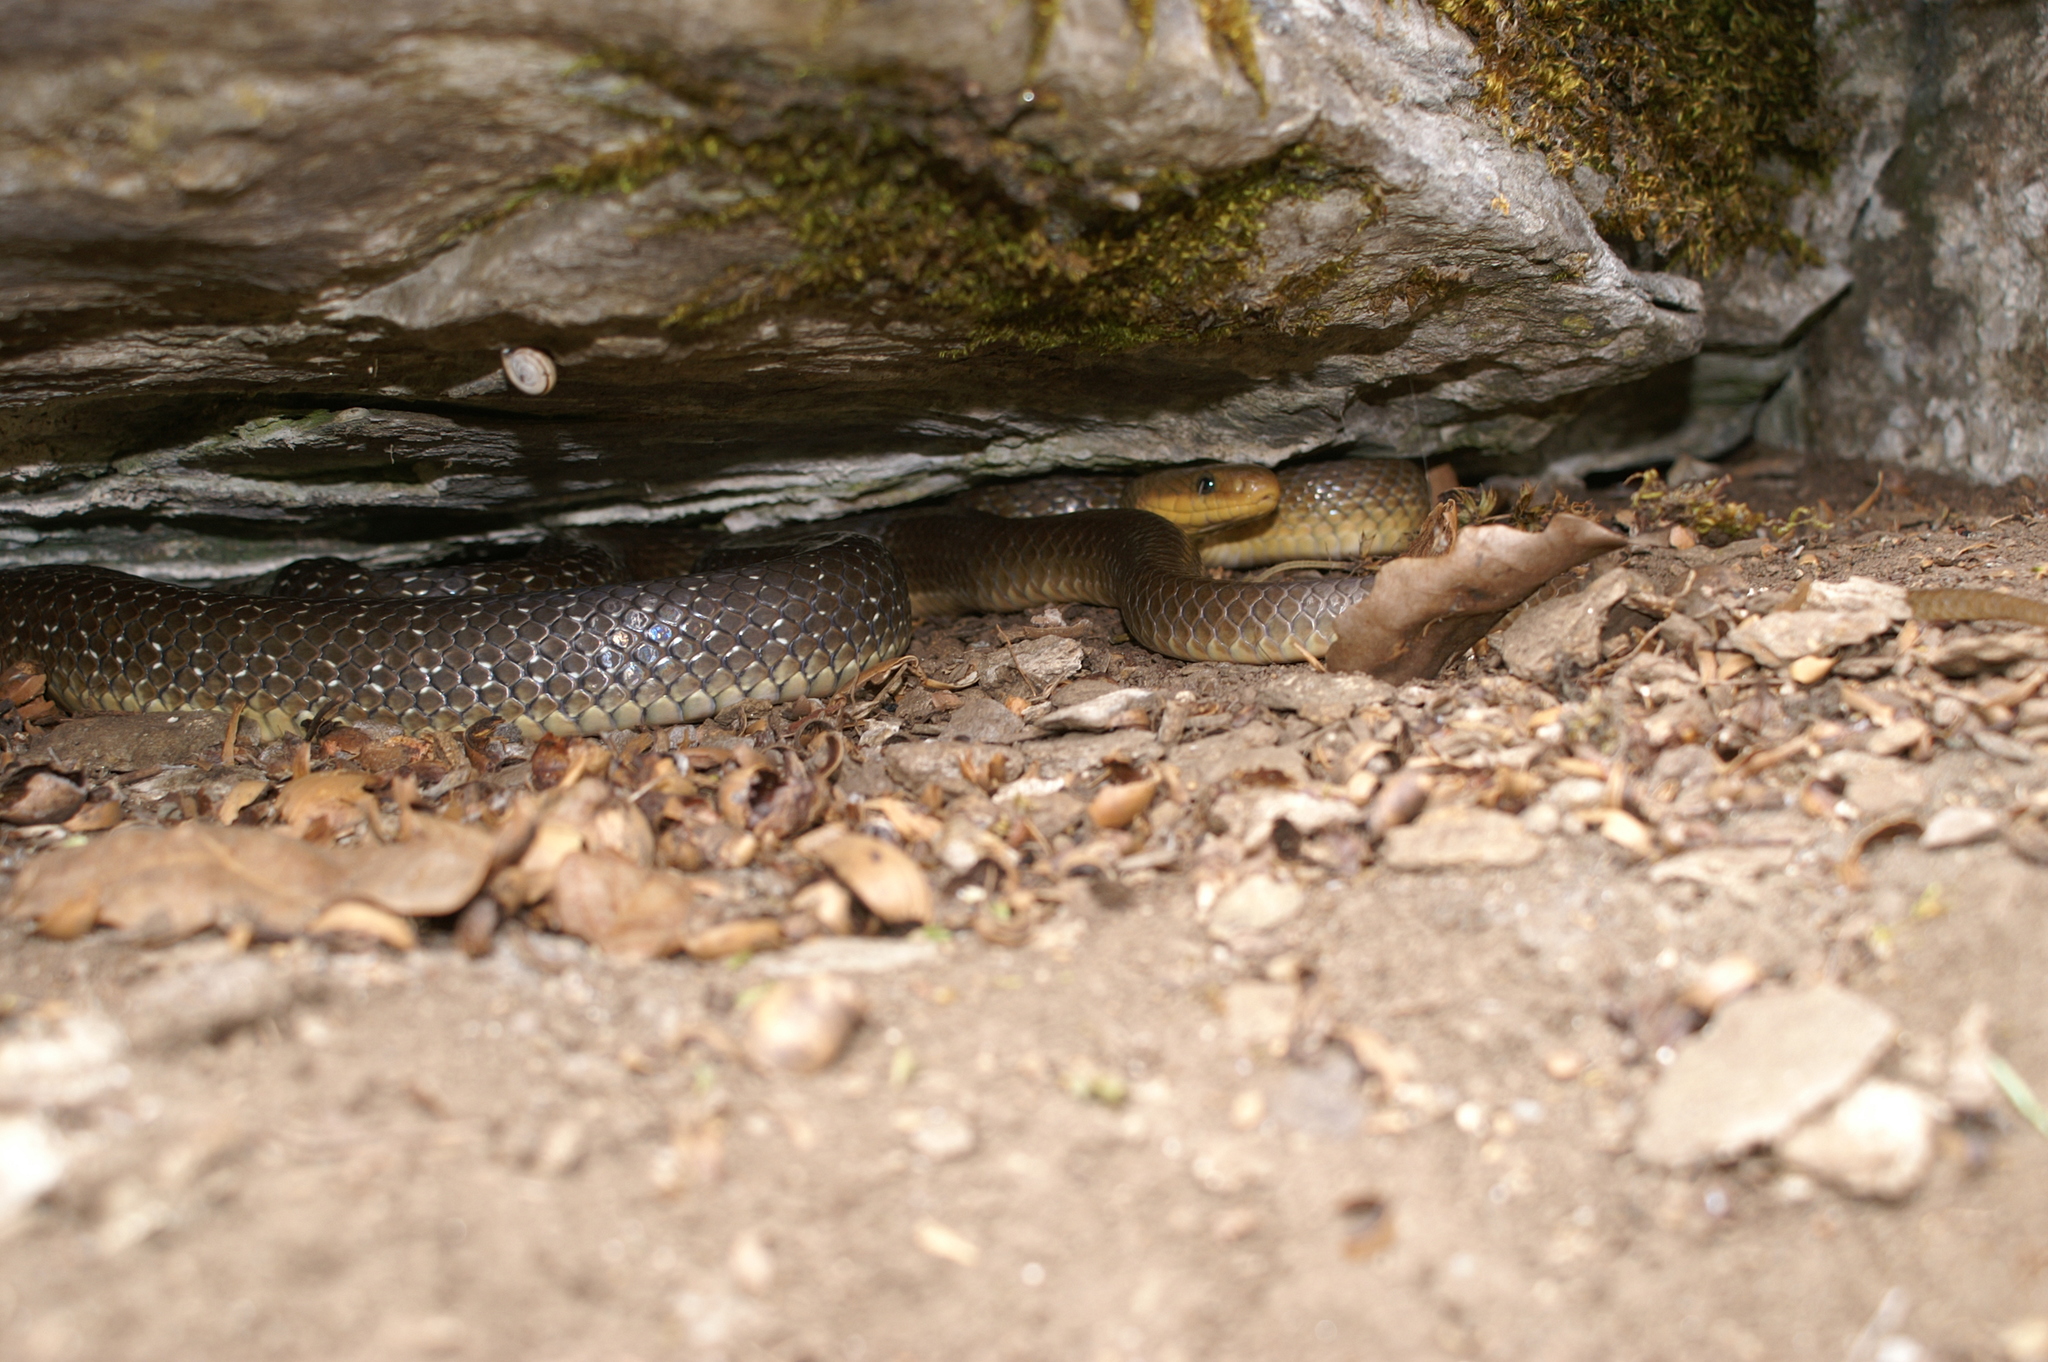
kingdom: Animalia
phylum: Chordata
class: Squamata
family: Colubridae
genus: Zamenis
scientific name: Zamenis longissimus
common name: Aesculapean snake
